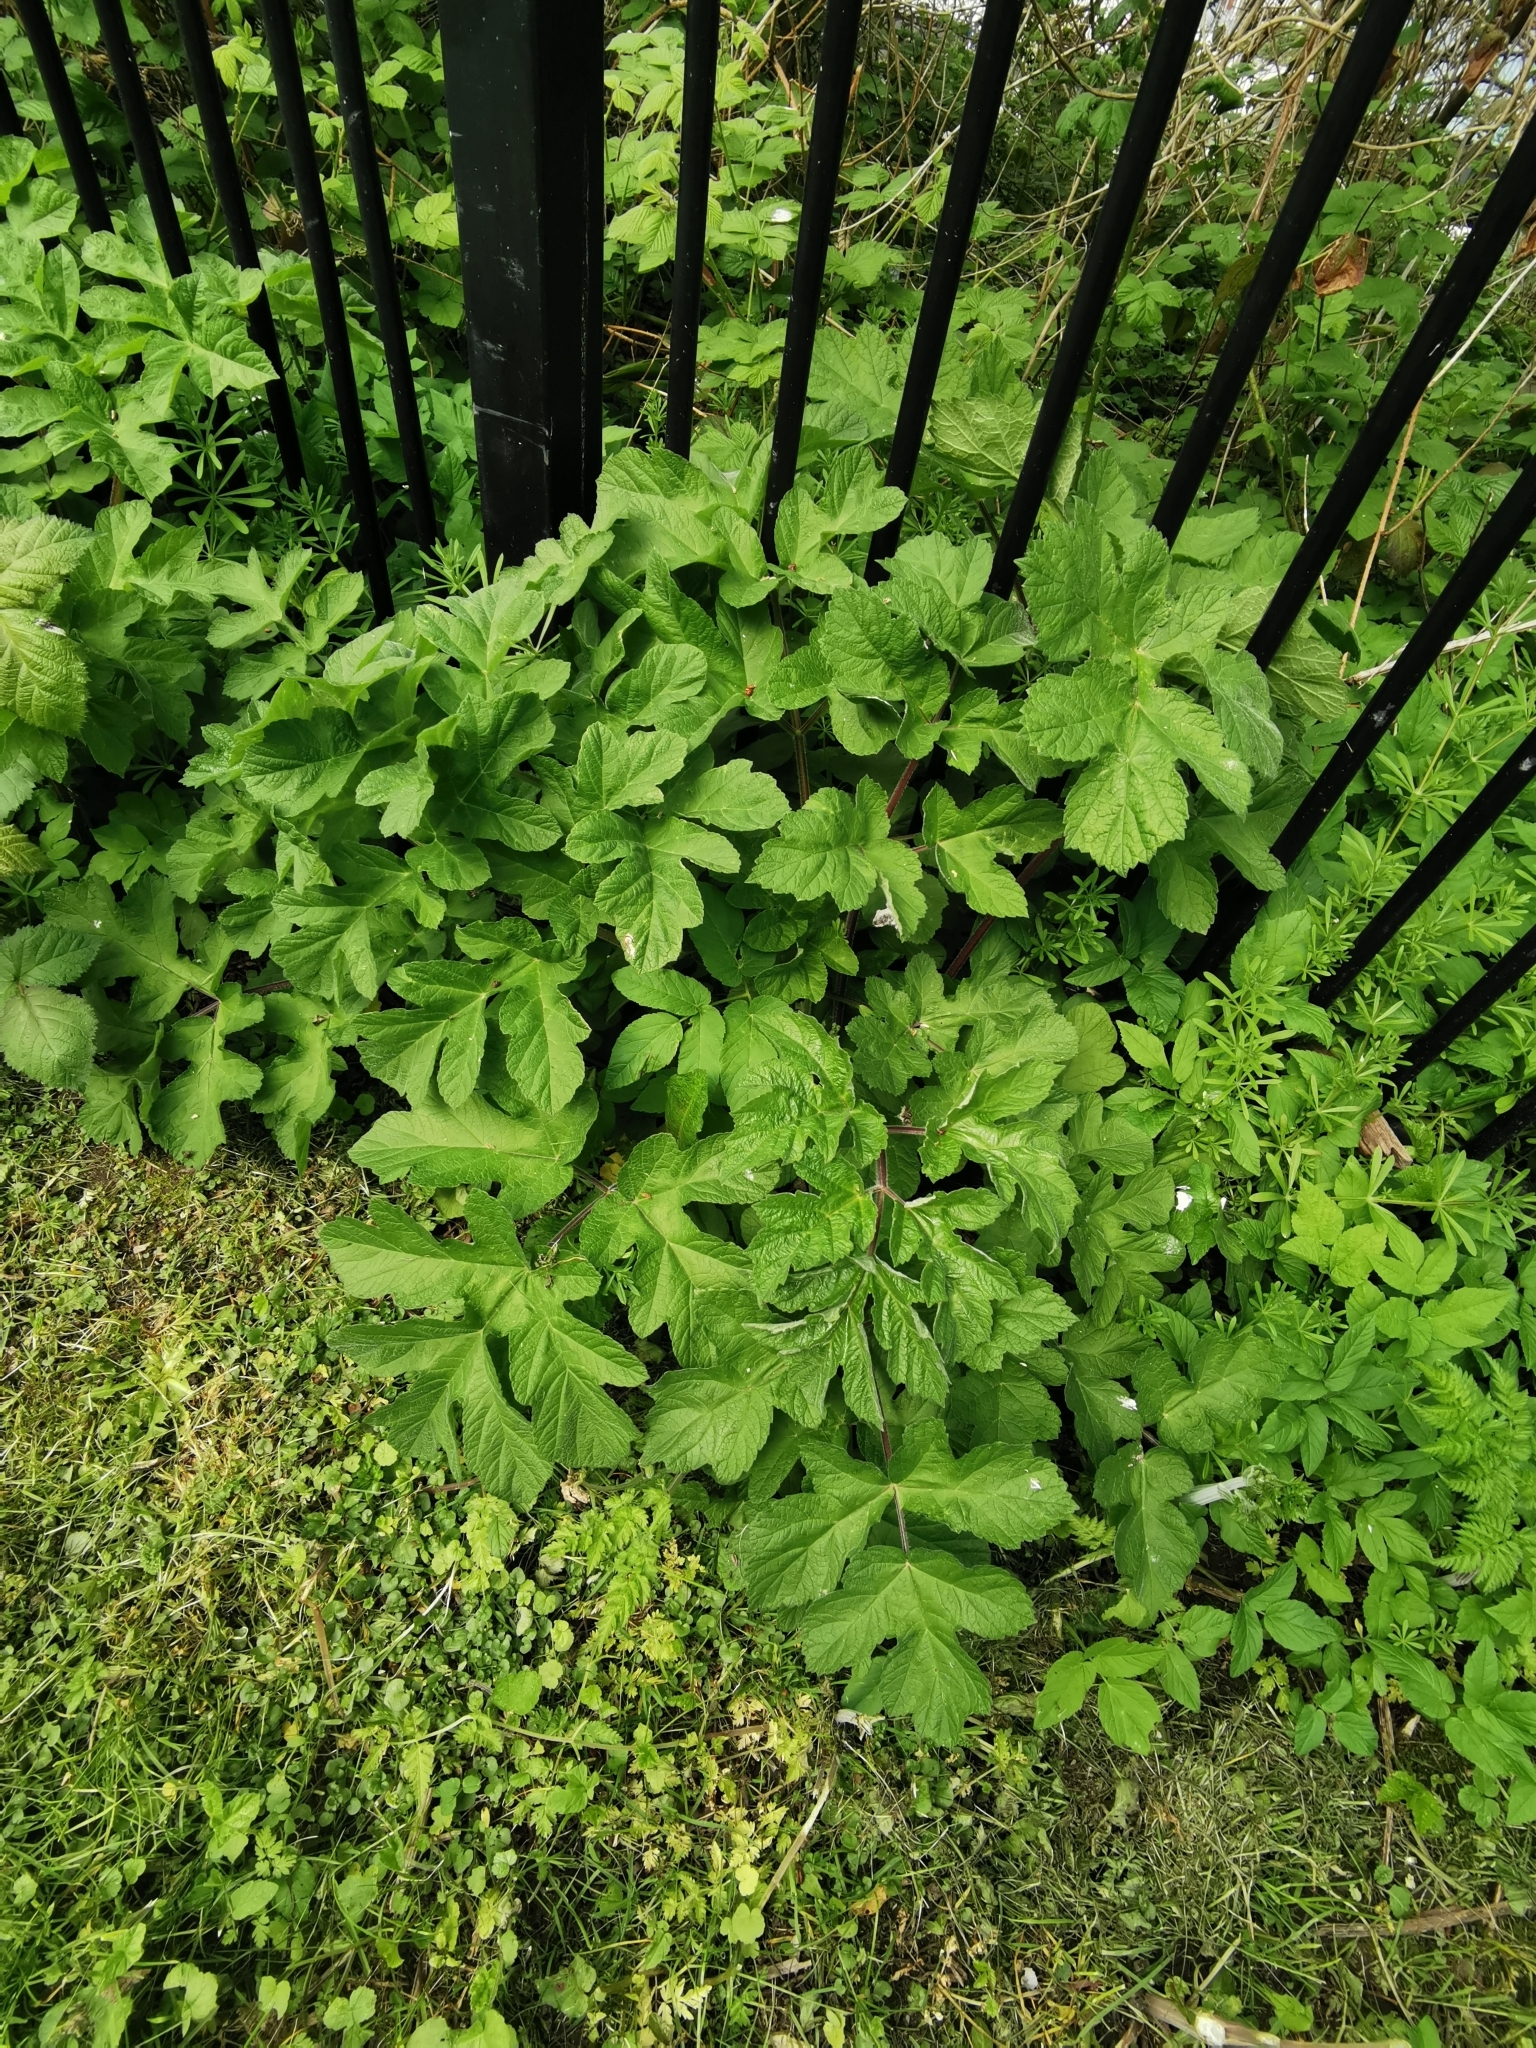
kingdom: Plantae
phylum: Tracheophyta
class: Magnoliopsida
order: Apiales
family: Apiaceae
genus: Heracleum
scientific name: Heracleum sphondylium
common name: Hogweed
